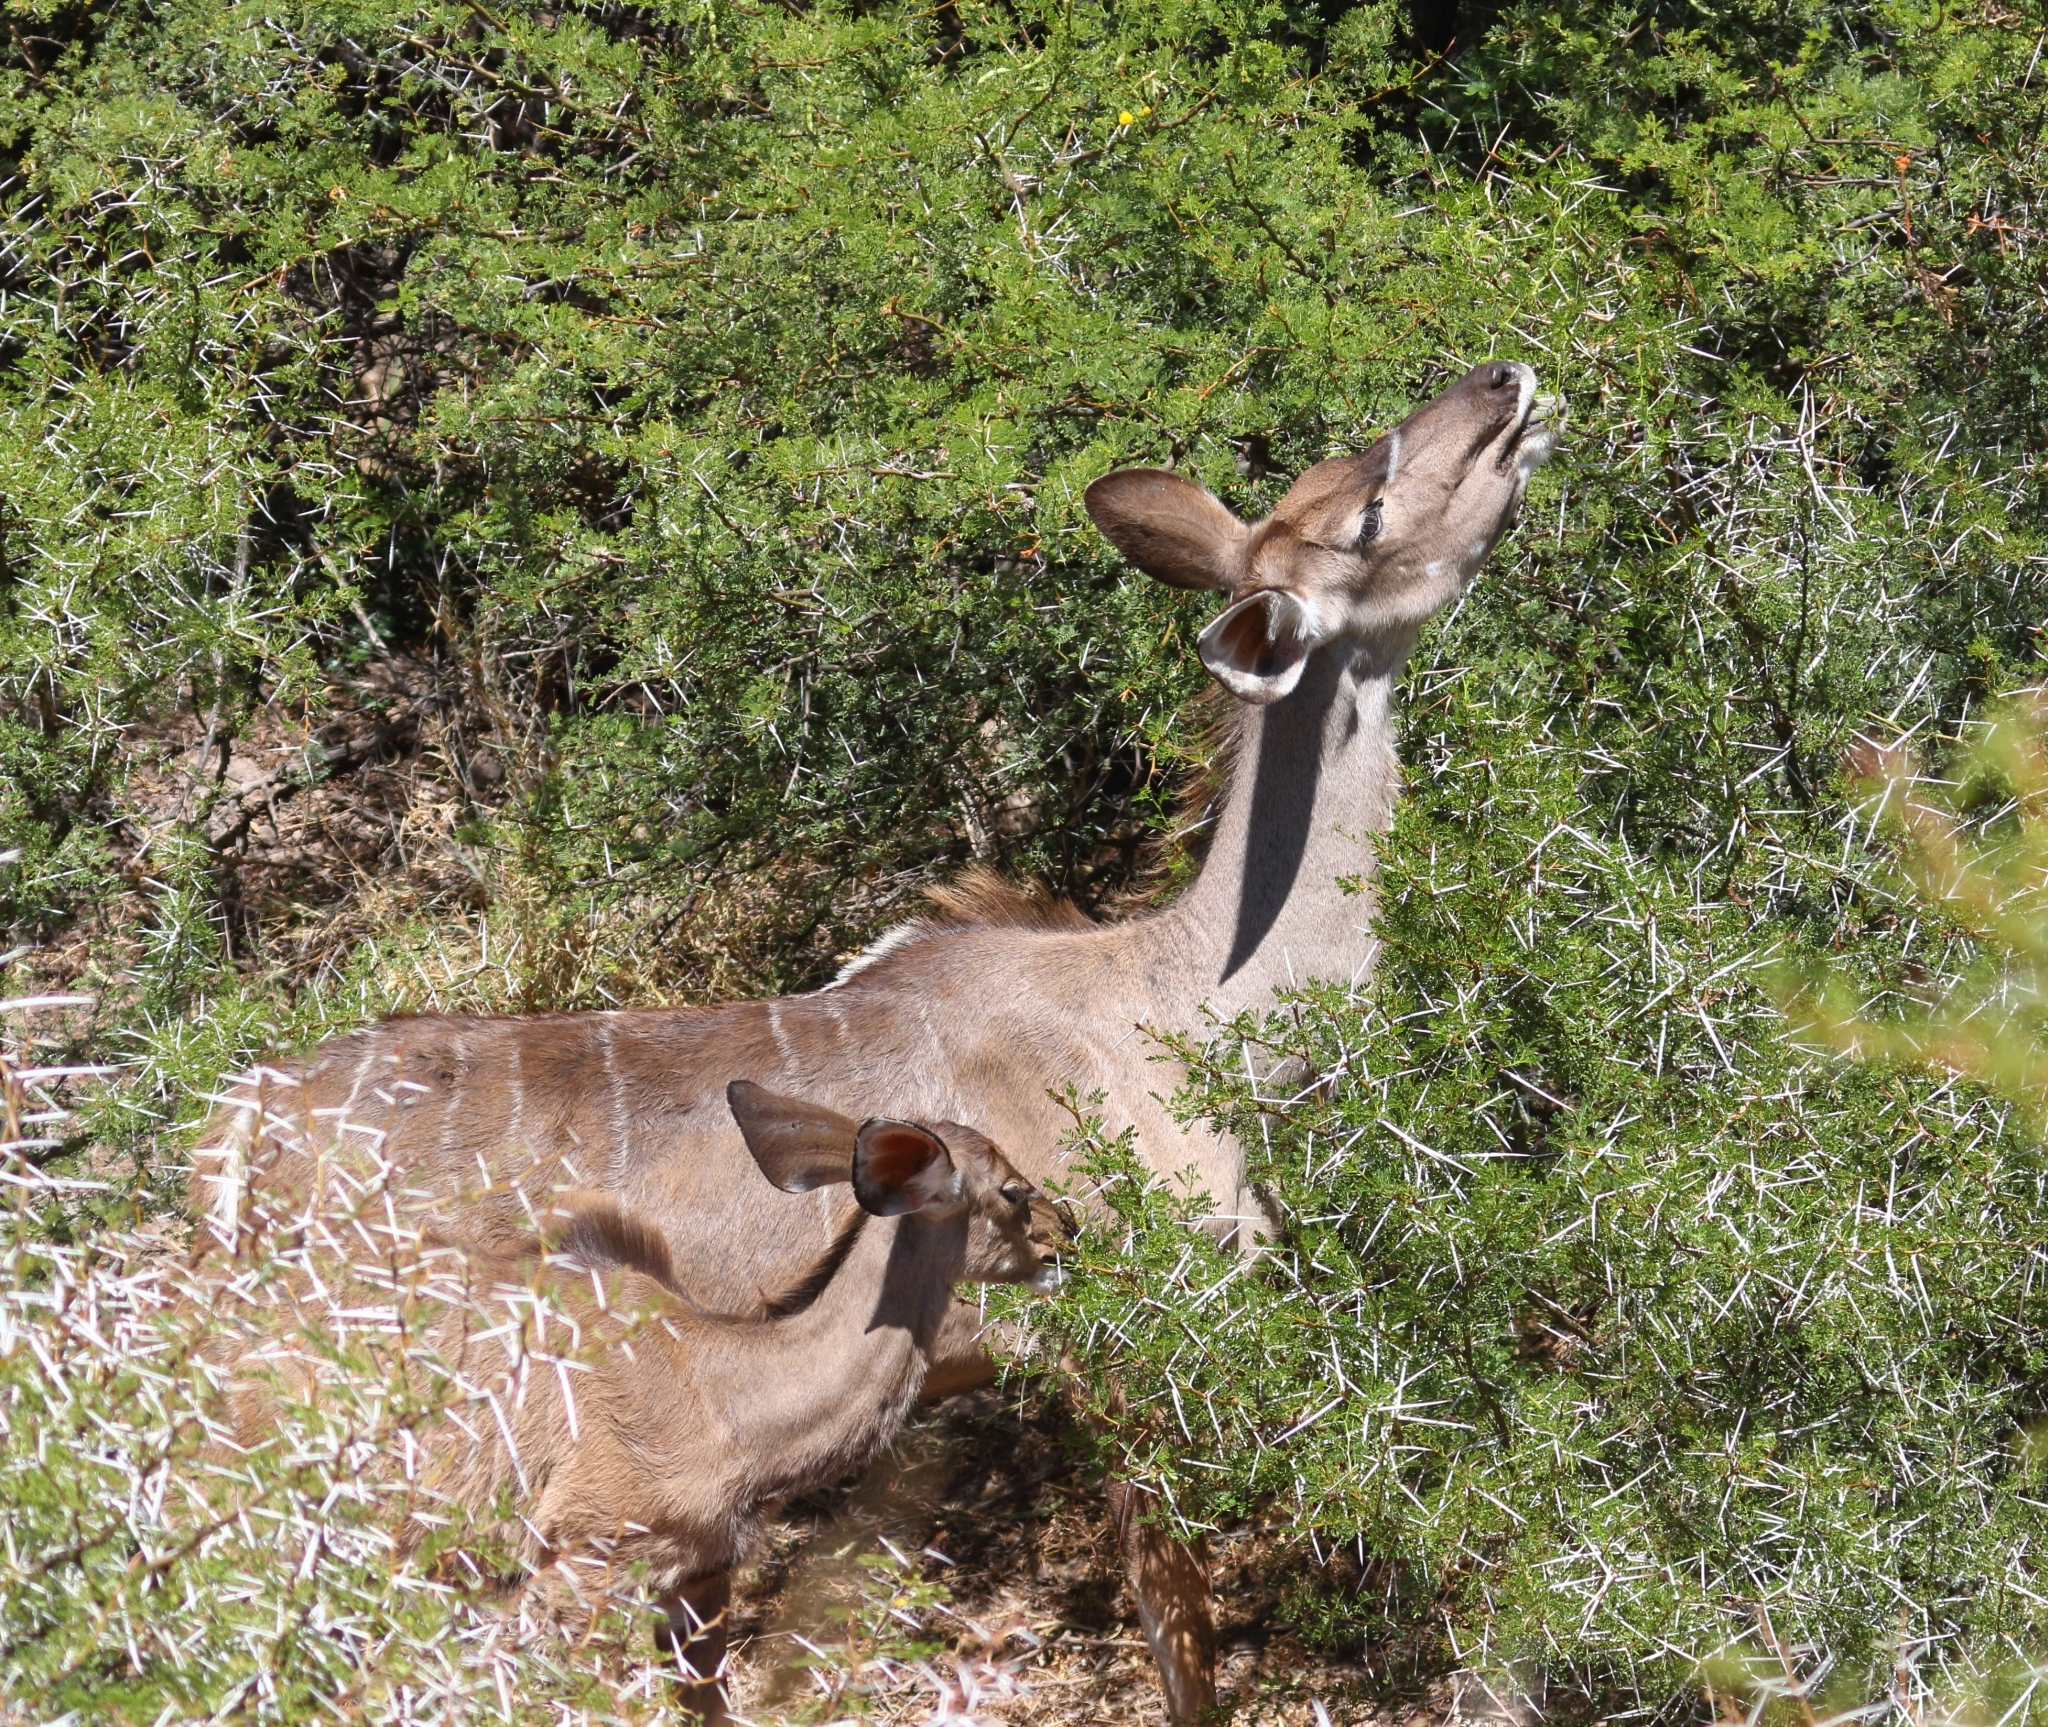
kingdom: Animalia
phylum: Chordata
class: Mammalia
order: Artiodactyla
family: Bovidae
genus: Tragelaphus
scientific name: Tragelaphus strepsiceros
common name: Greater kudu
